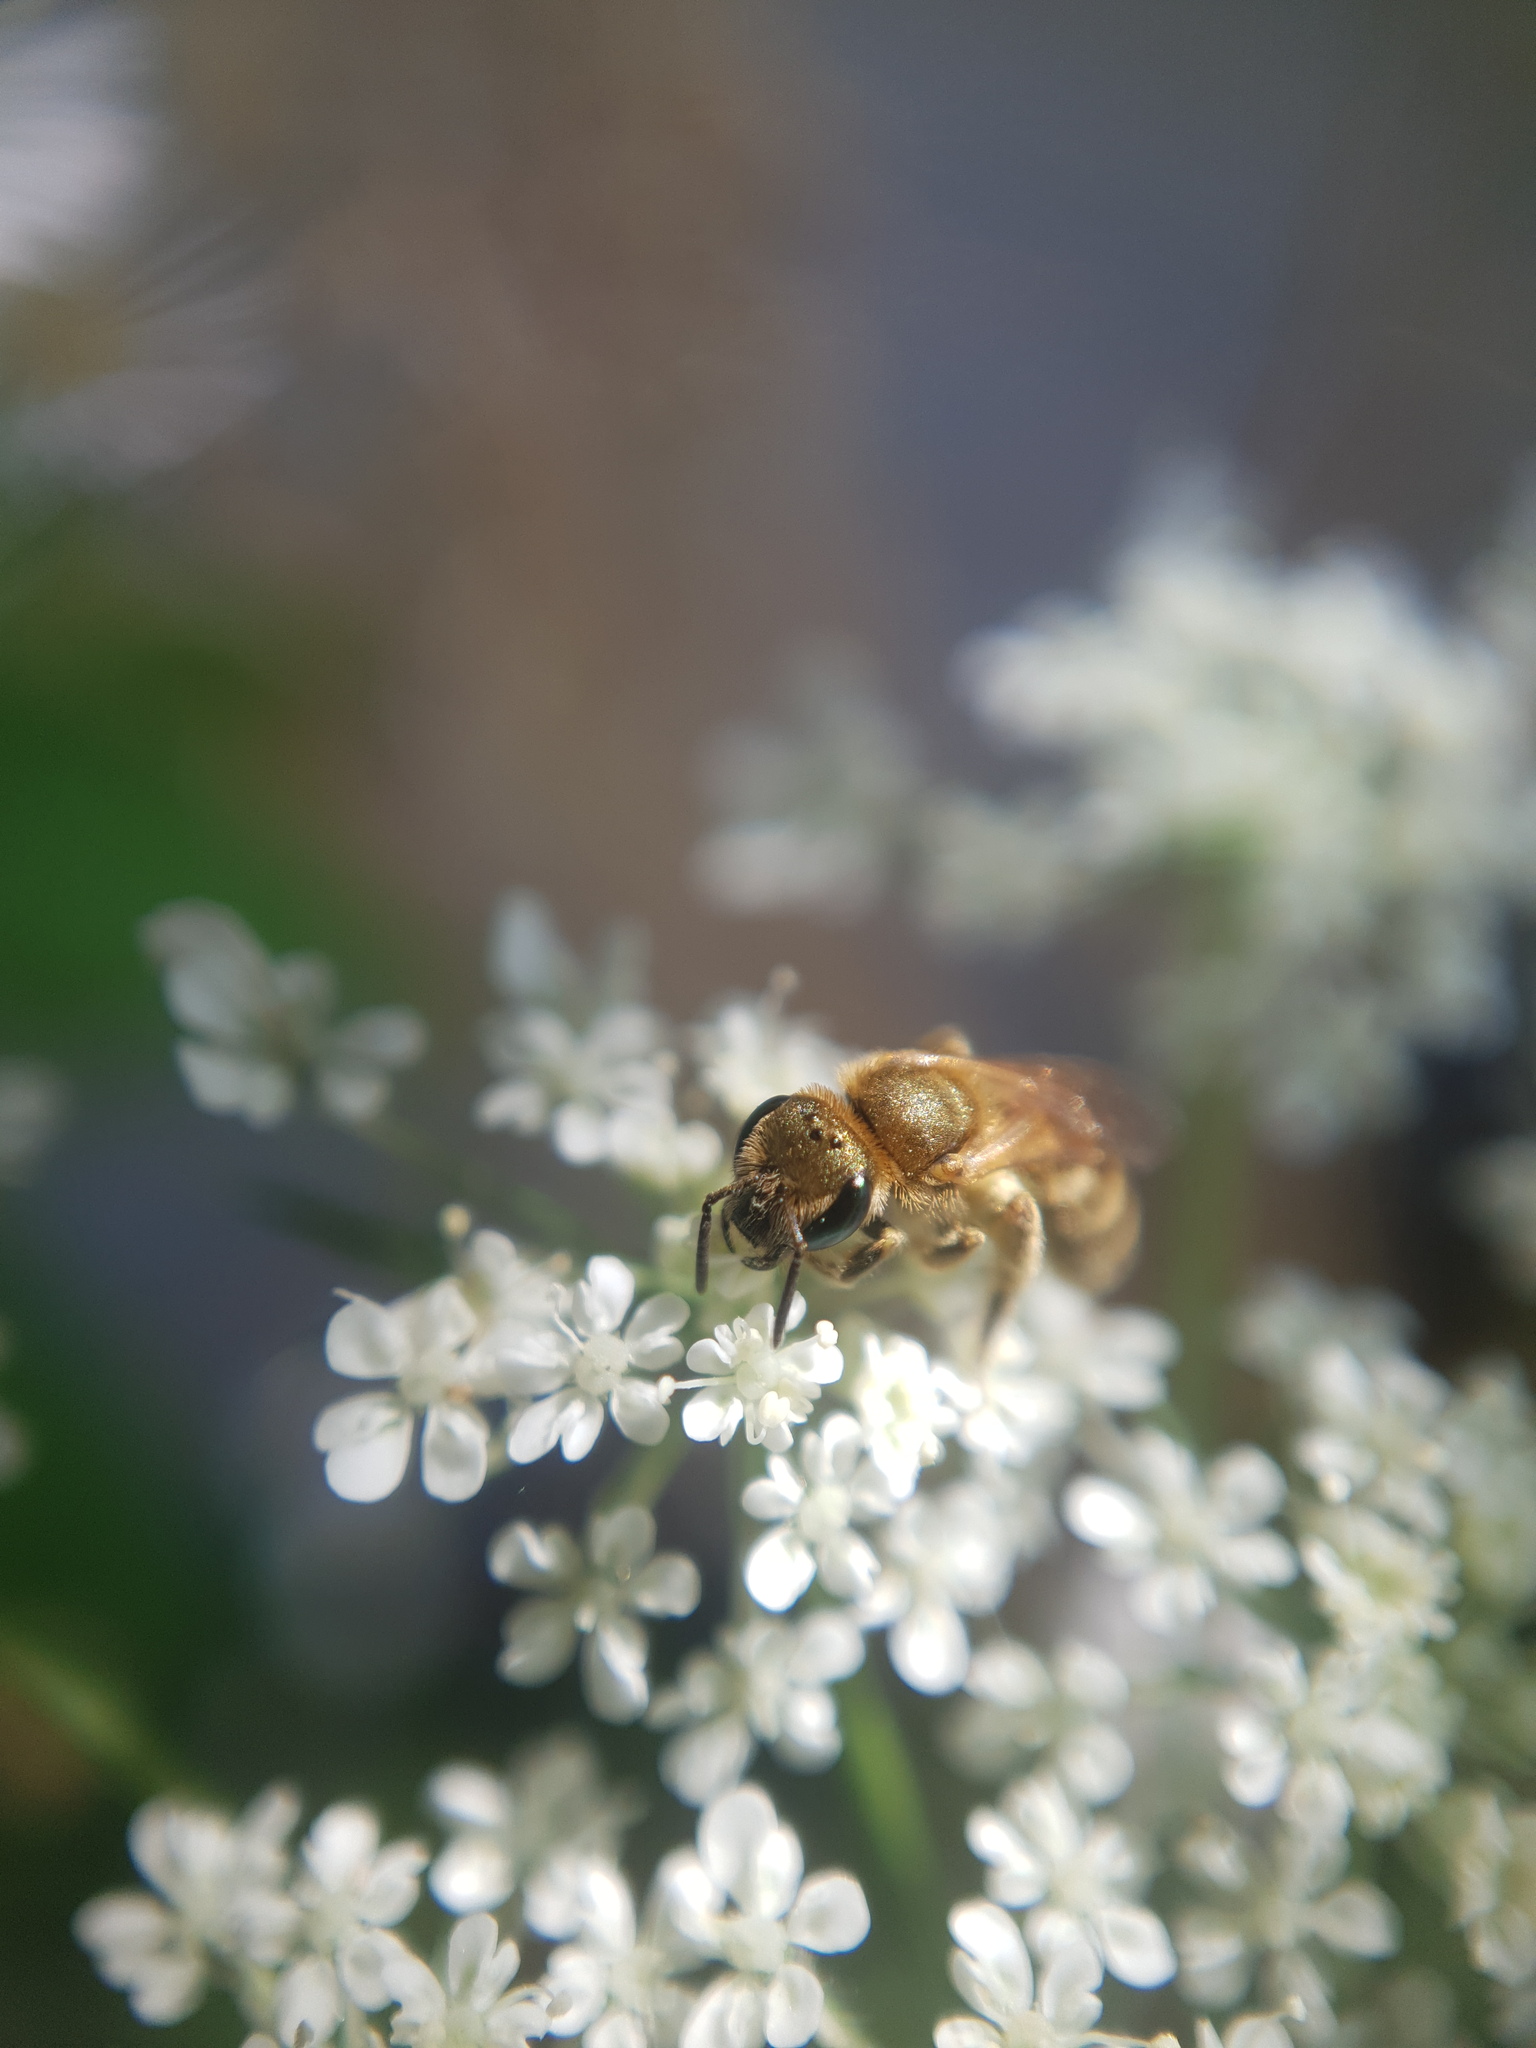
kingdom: Animalia
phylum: Arthropoda
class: Insecta
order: Hymenoptera
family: Halictidae
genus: Halictus
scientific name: Halictus subauratus
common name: Golden furrow bee
